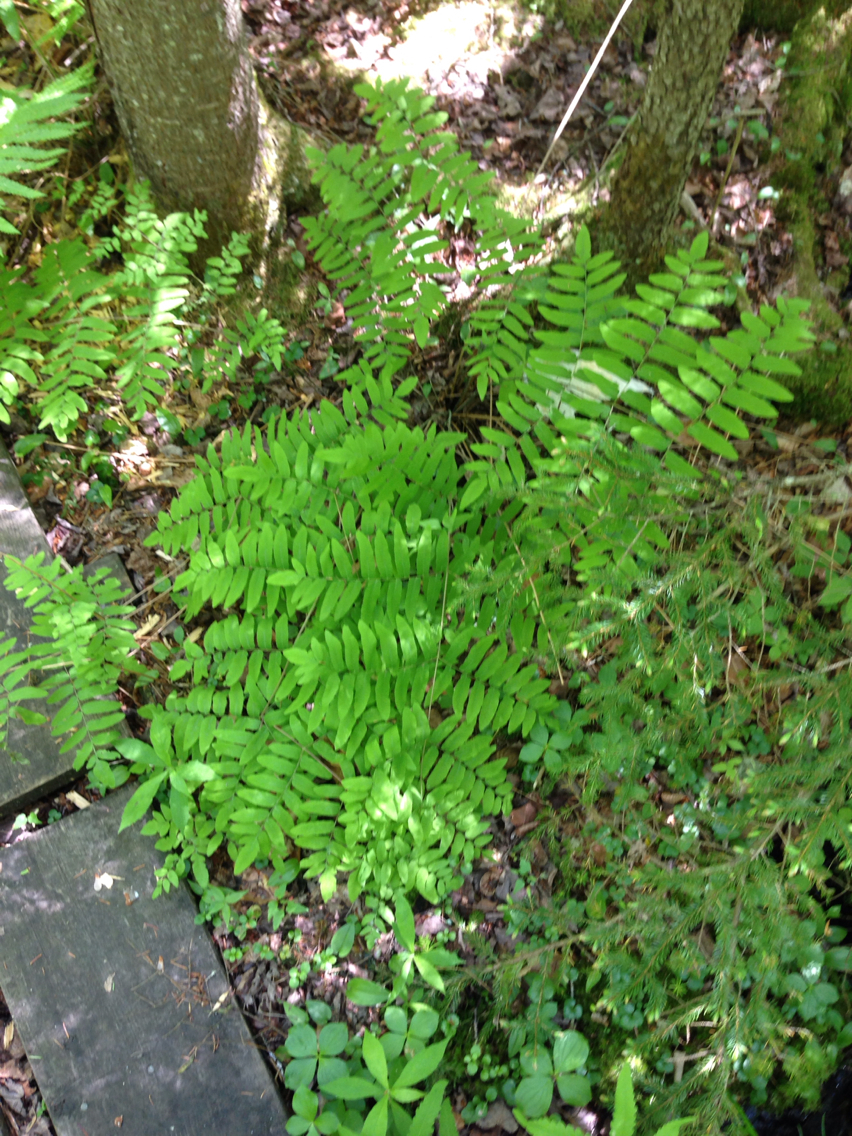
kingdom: Plantae
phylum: Tracheophyta
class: Polypodiopsida
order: Osmundales
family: Osmundaceae
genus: Osmunda
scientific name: Osmunda spectabilis
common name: American royal fern
